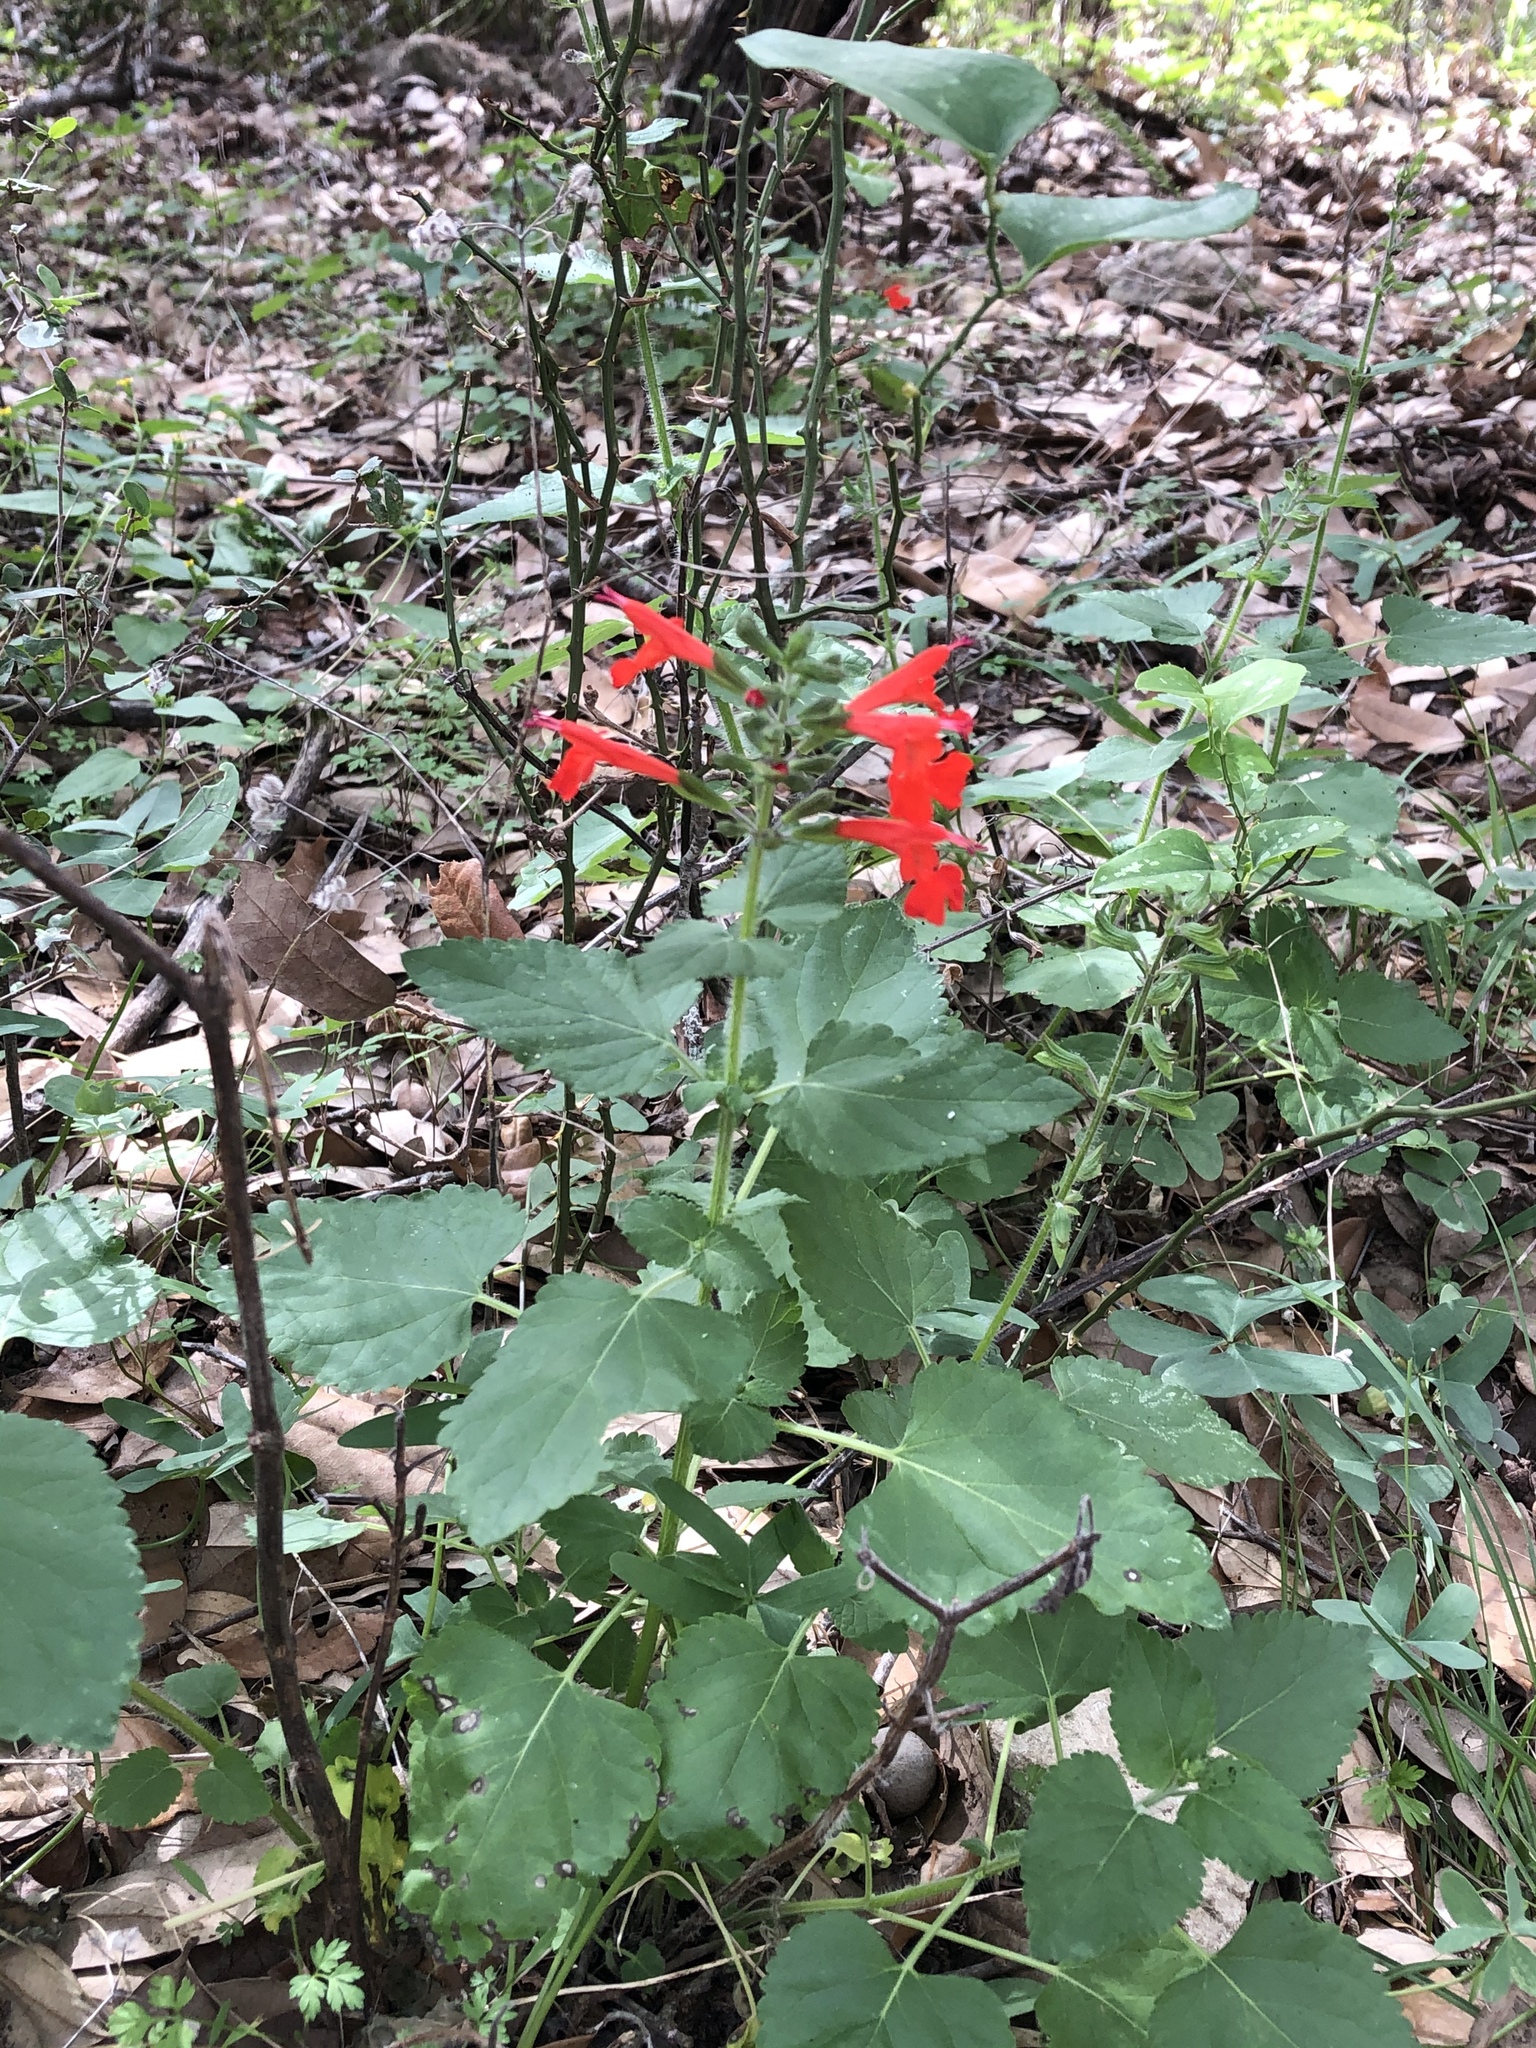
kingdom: Plantae
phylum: Tracheophyta
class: Magnoliopsida
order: Lamiales
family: Lamiaceae
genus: Salvia
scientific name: Salvia coccinea
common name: Blood sage
